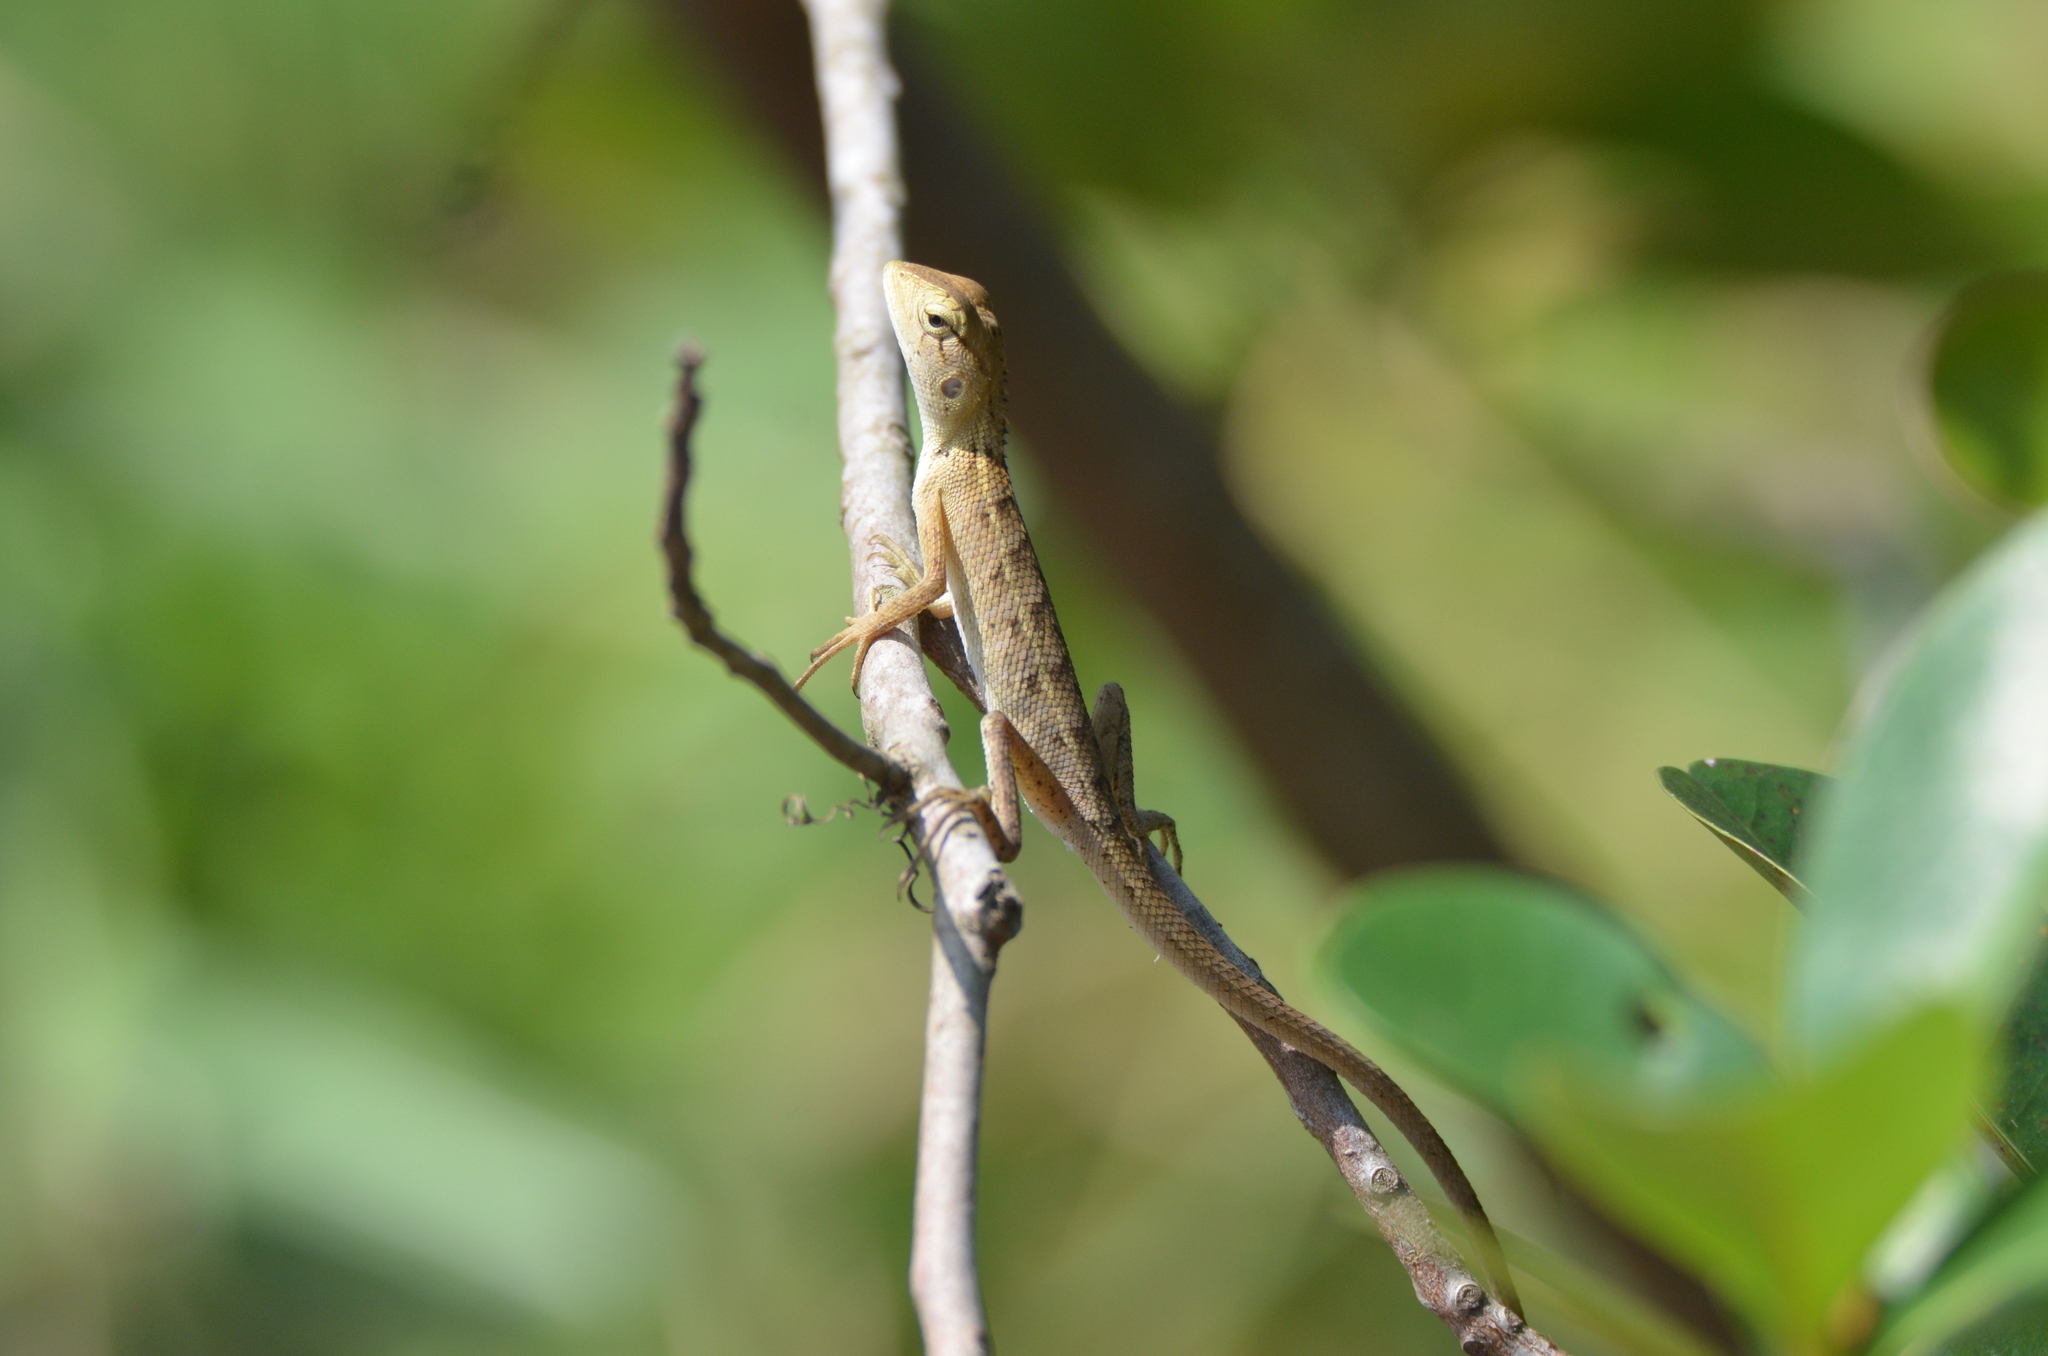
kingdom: Animalia
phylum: Chordata
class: Squamata
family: Agamidae
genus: Calotes
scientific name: Calotes versicolor
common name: Oriental garden lizard
